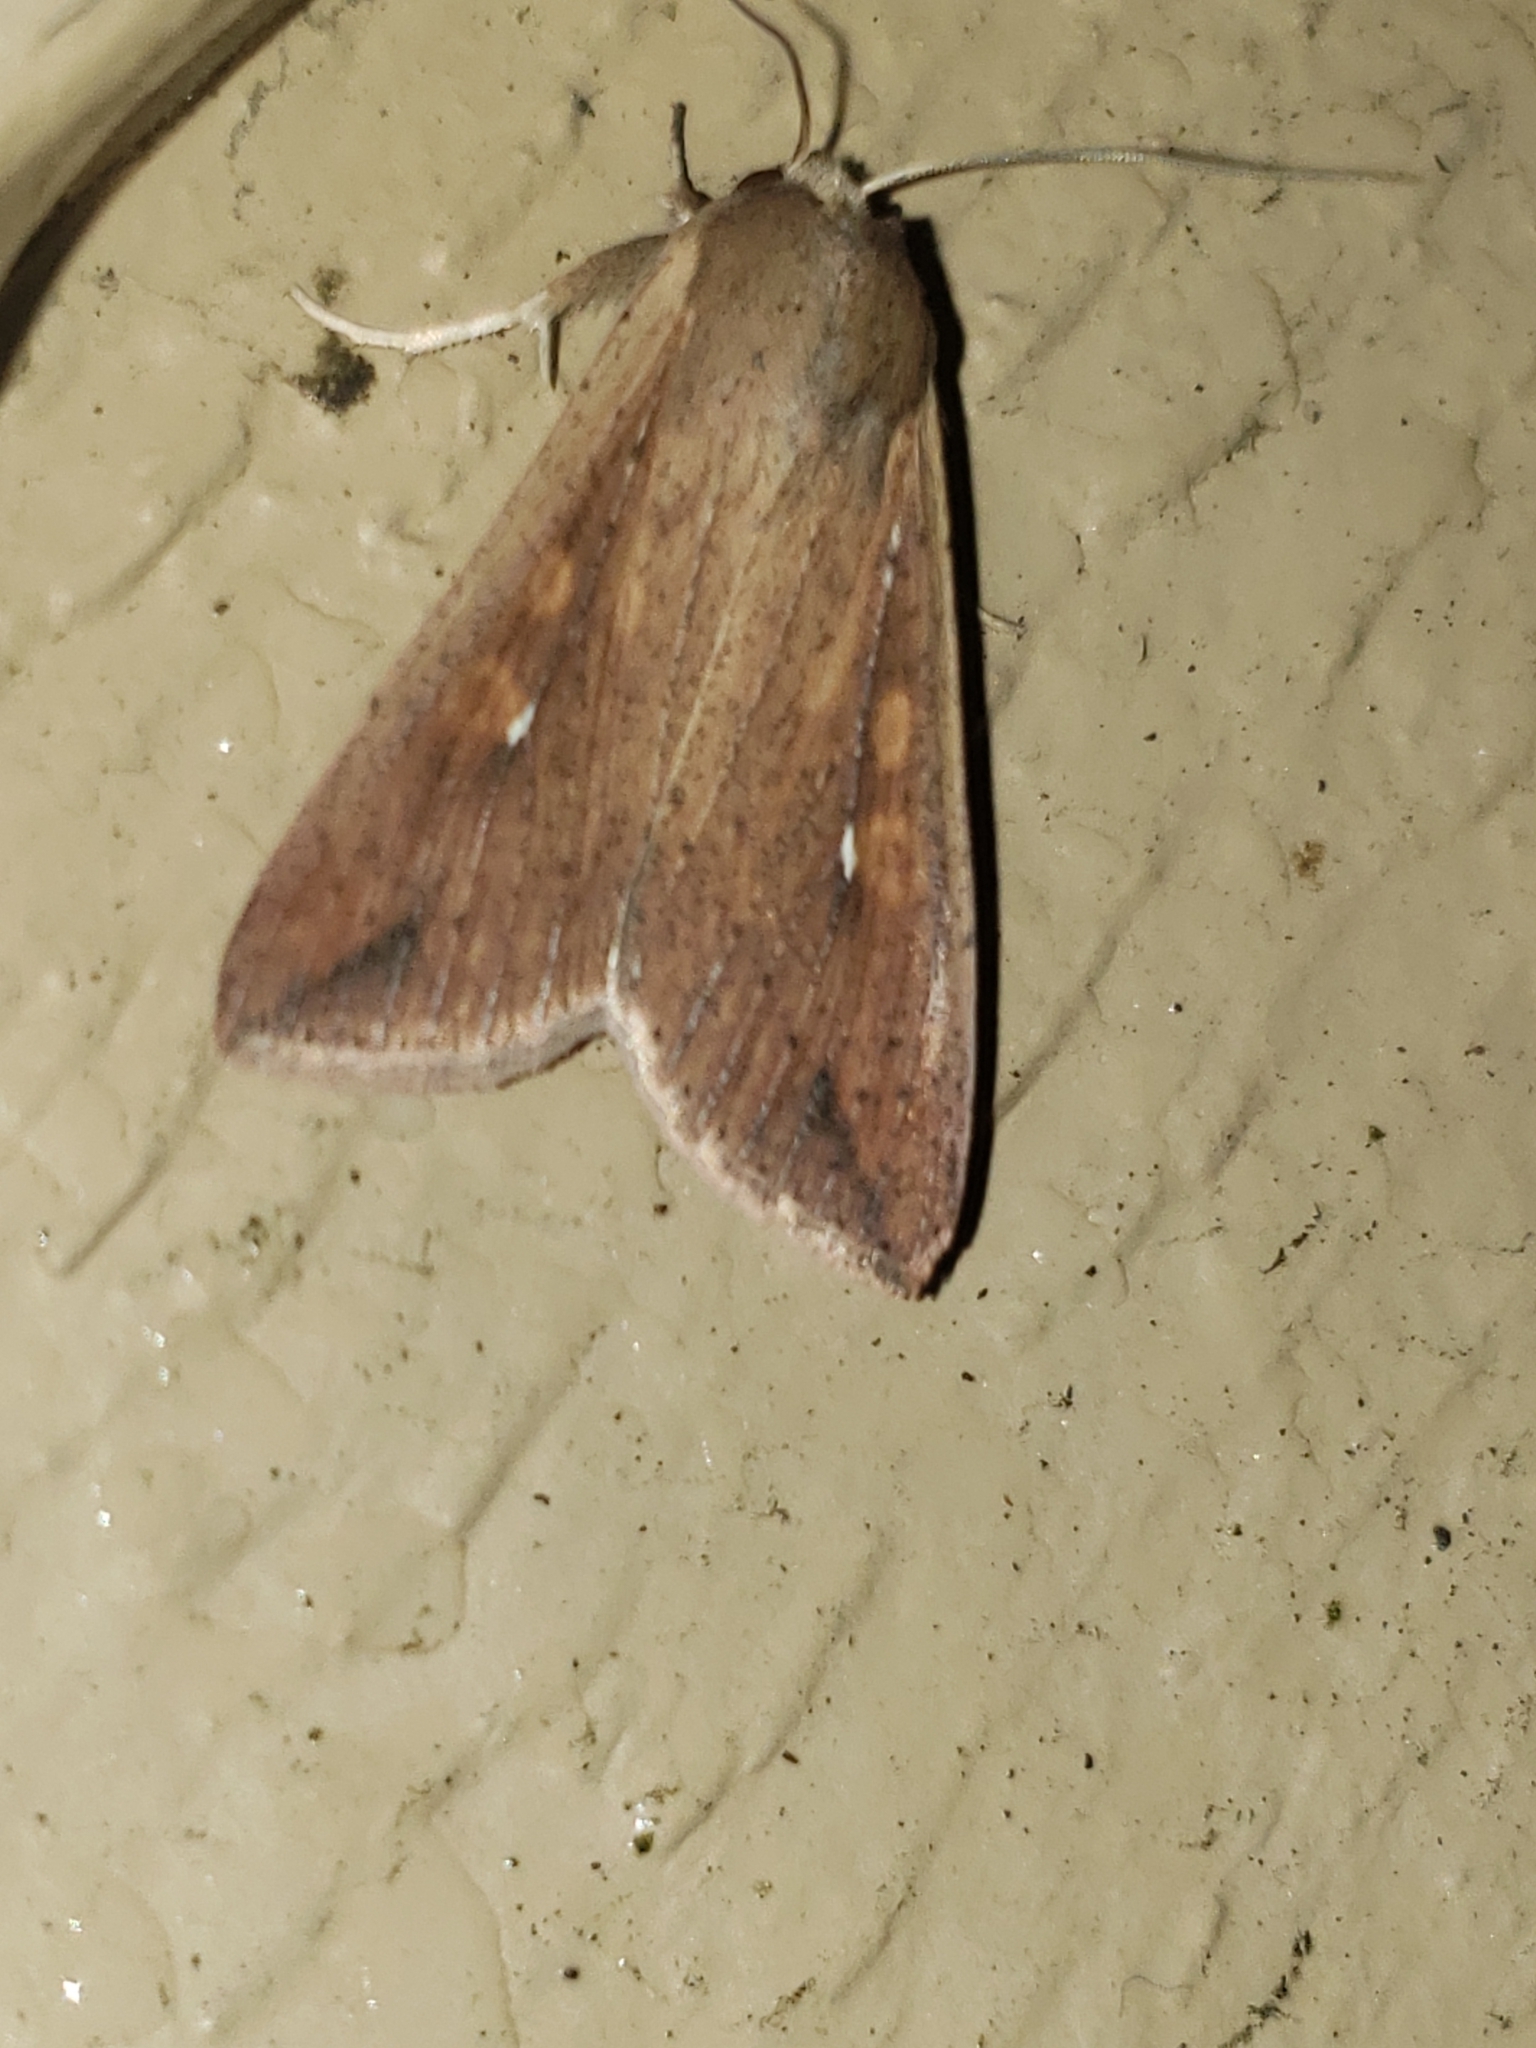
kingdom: Animalia
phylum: Arthropoda
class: Insecta
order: Lepidoptera
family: Noctuidae
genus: Mythimna
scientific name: Mythimna unipuncta
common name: White-speck
